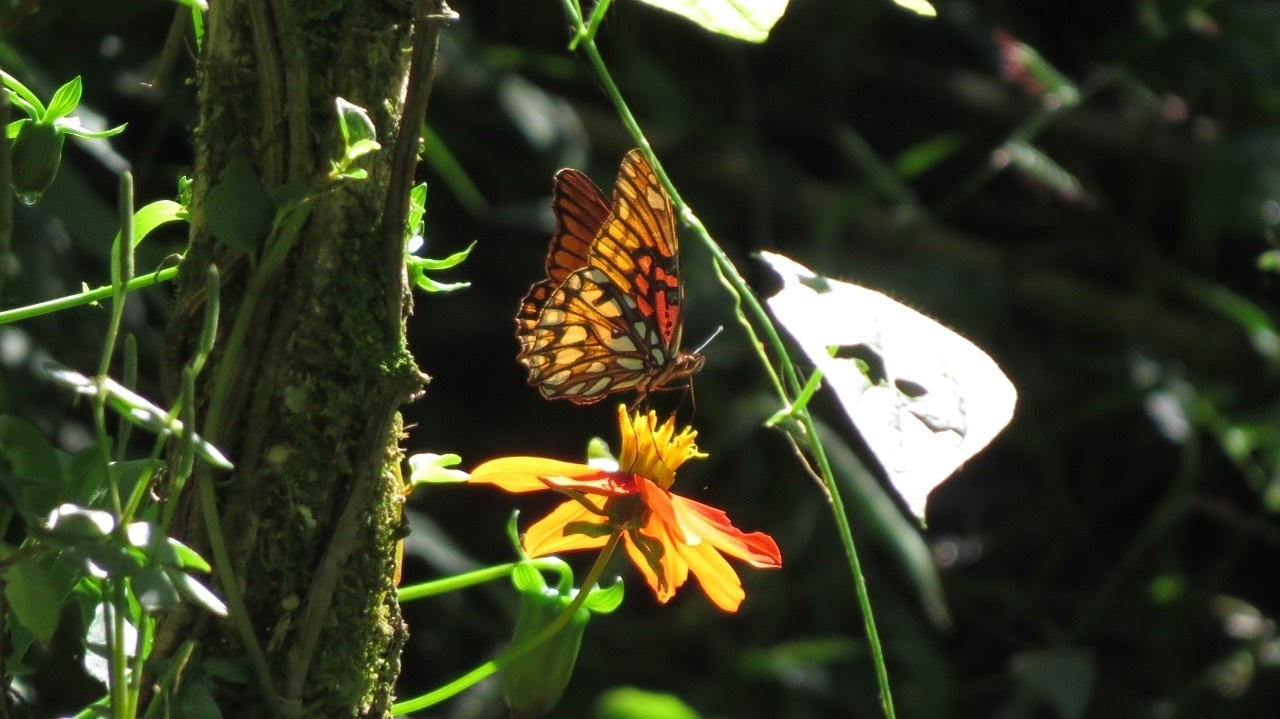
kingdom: Animalia
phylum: Arthropoda
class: Insecta
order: Lepidoptera
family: Nymphalidae
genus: Dione
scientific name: Dione moneta
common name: Mexican silverspot
